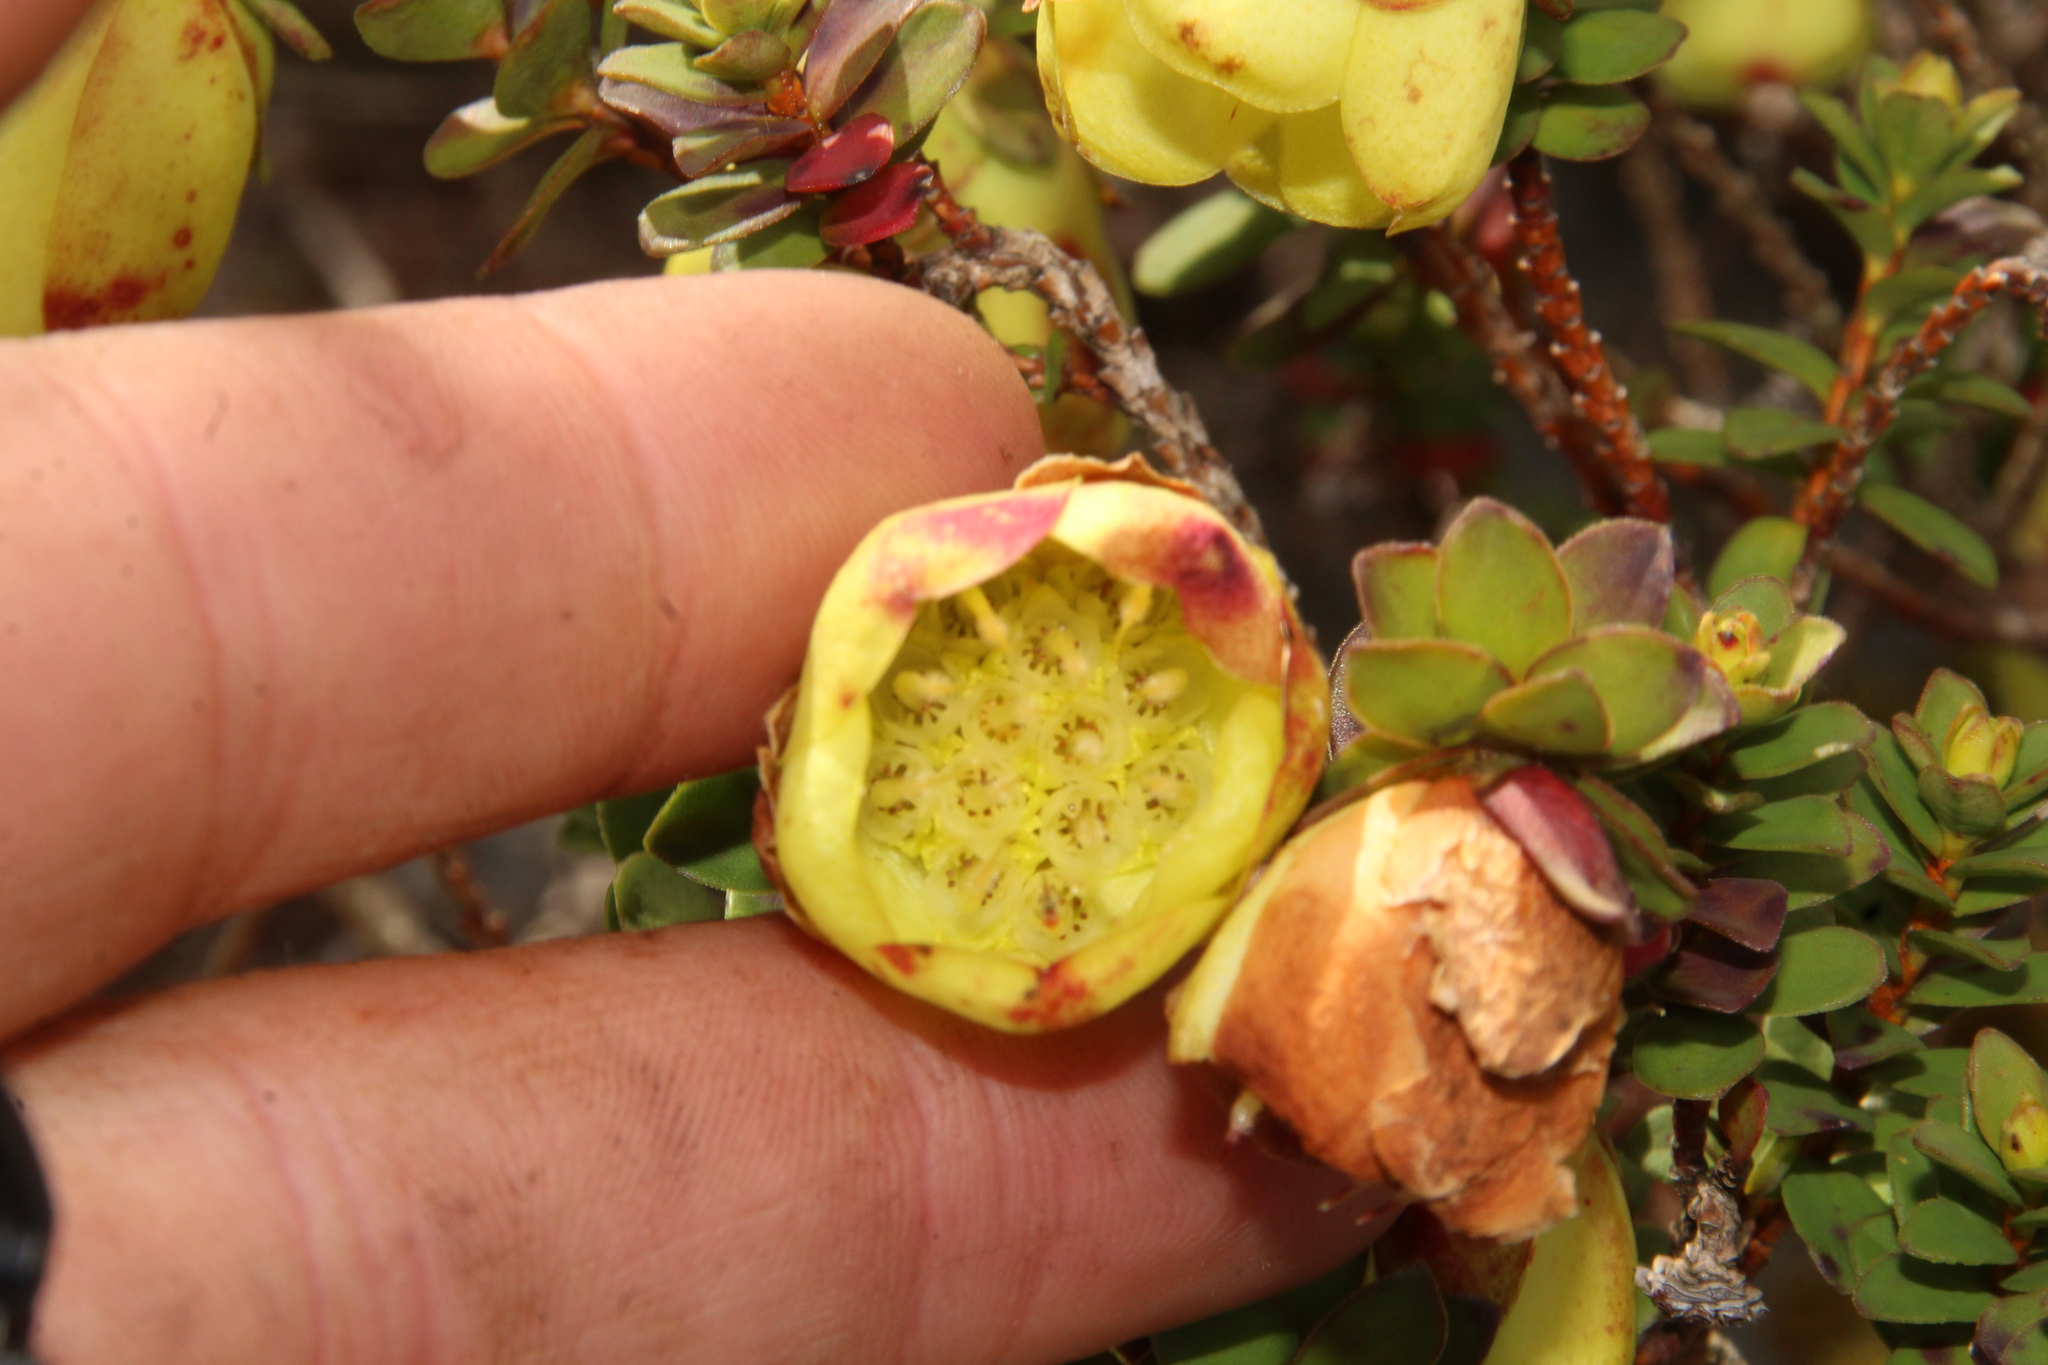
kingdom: Plantae
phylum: Tracheophyta
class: Magnoliopsida
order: Myrtales
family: Myrtaceae
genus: Darwinia
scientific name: Darwinia collina
